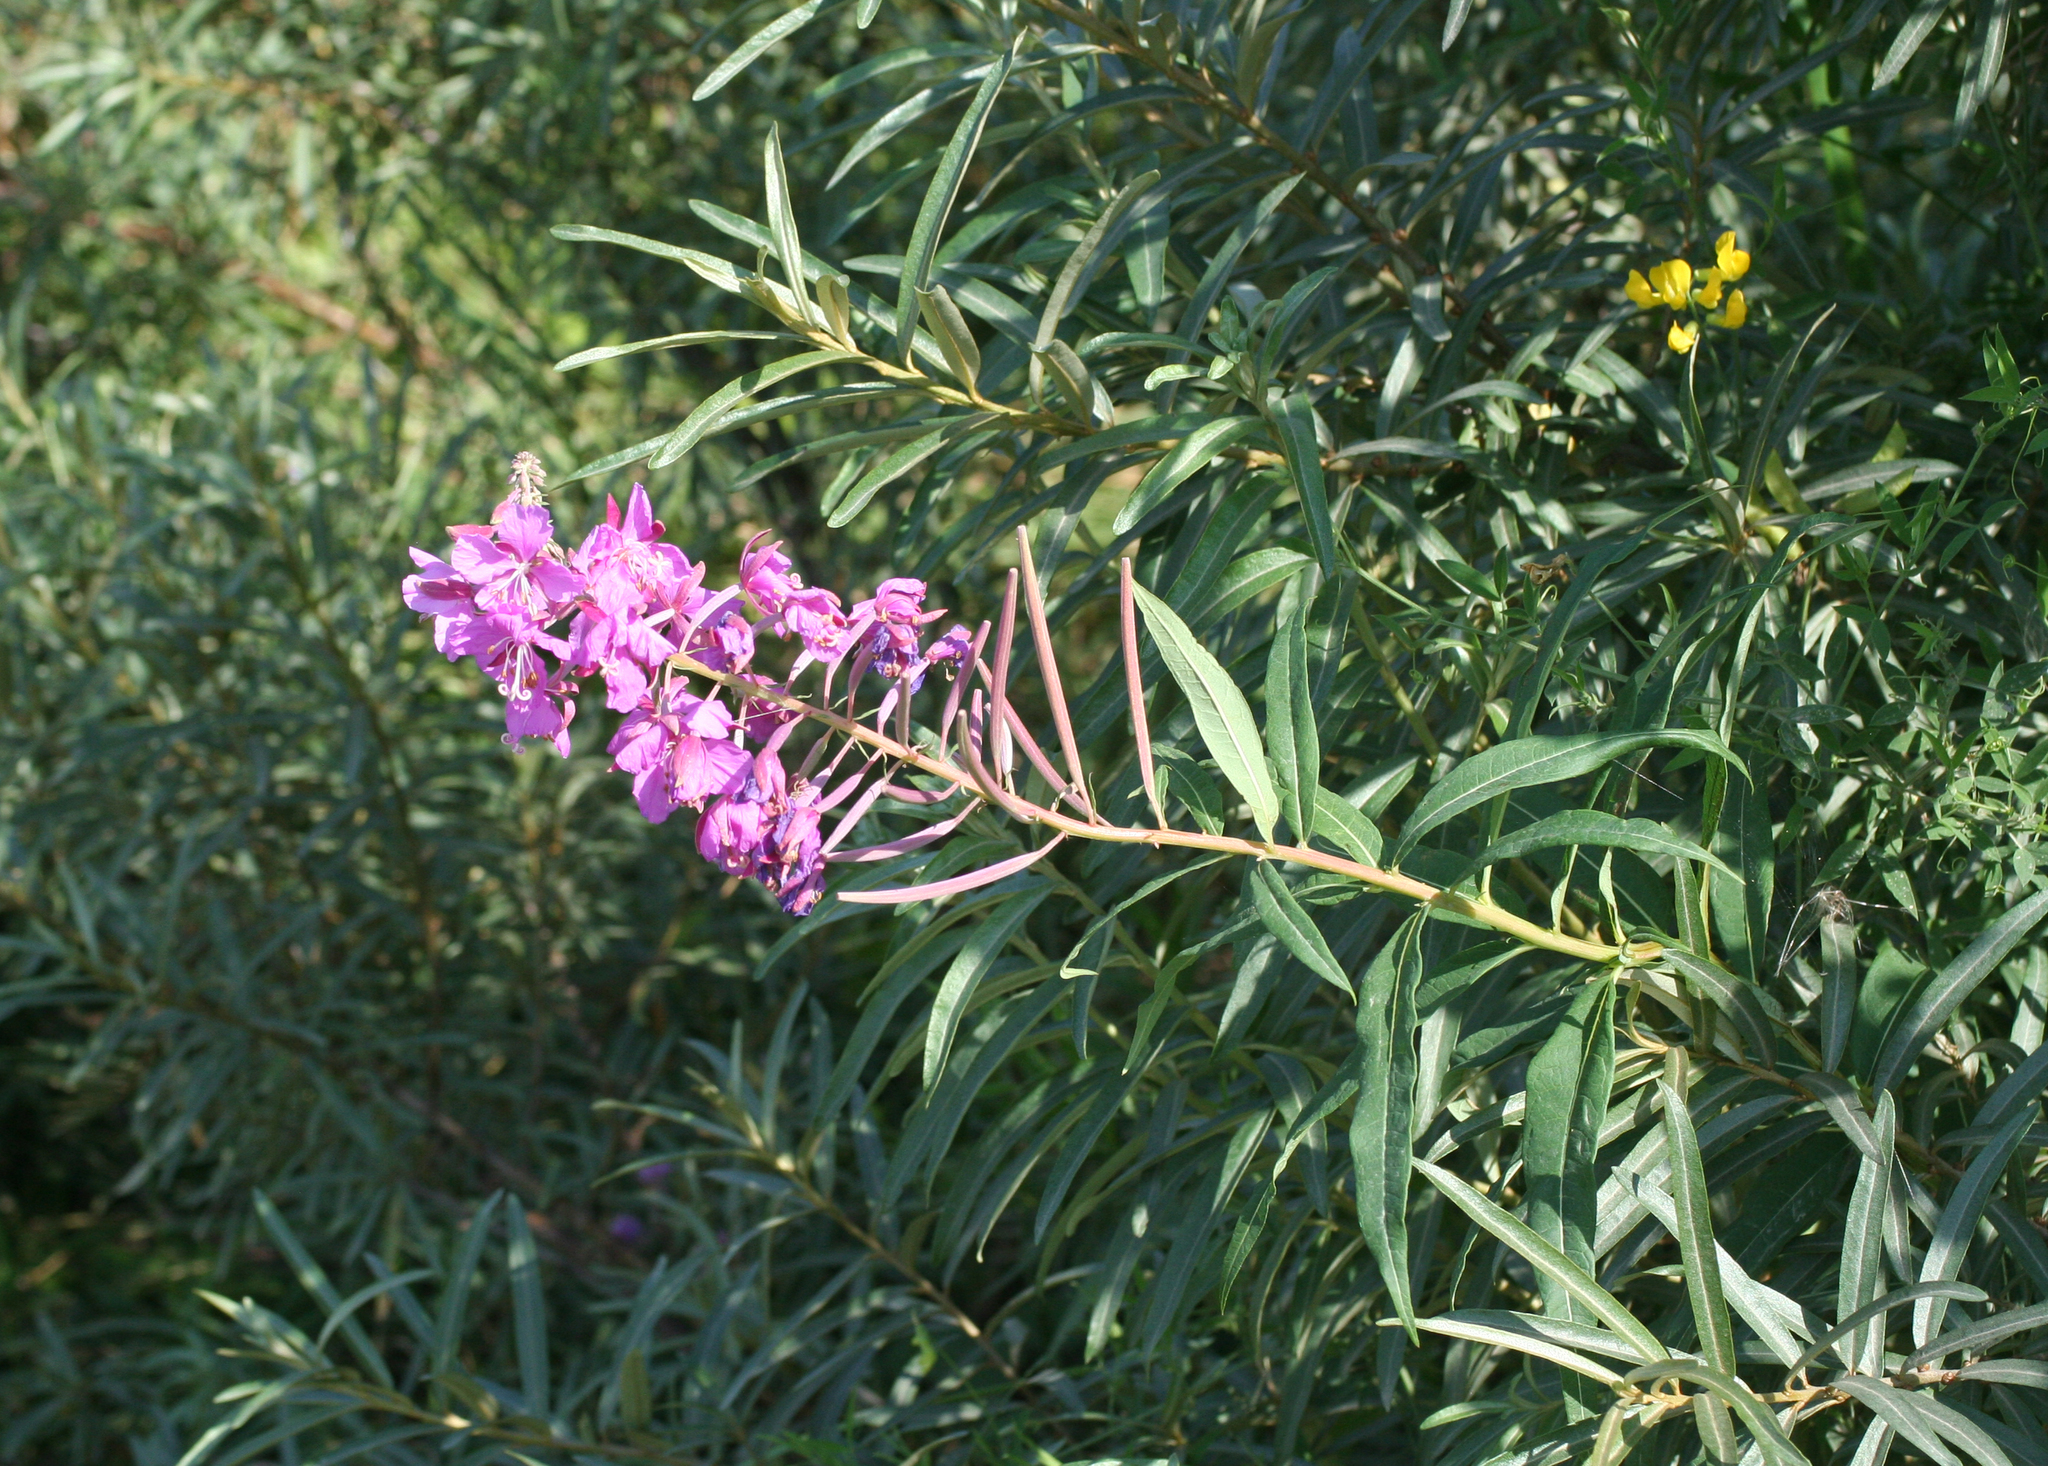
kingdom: Plantae
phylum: Tracheophyta
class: Magnoliopsida
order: Myrtales
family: Onagraceae
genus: Chamaenerion
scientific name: Chamaenerion angustifolium
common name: Fireweed
